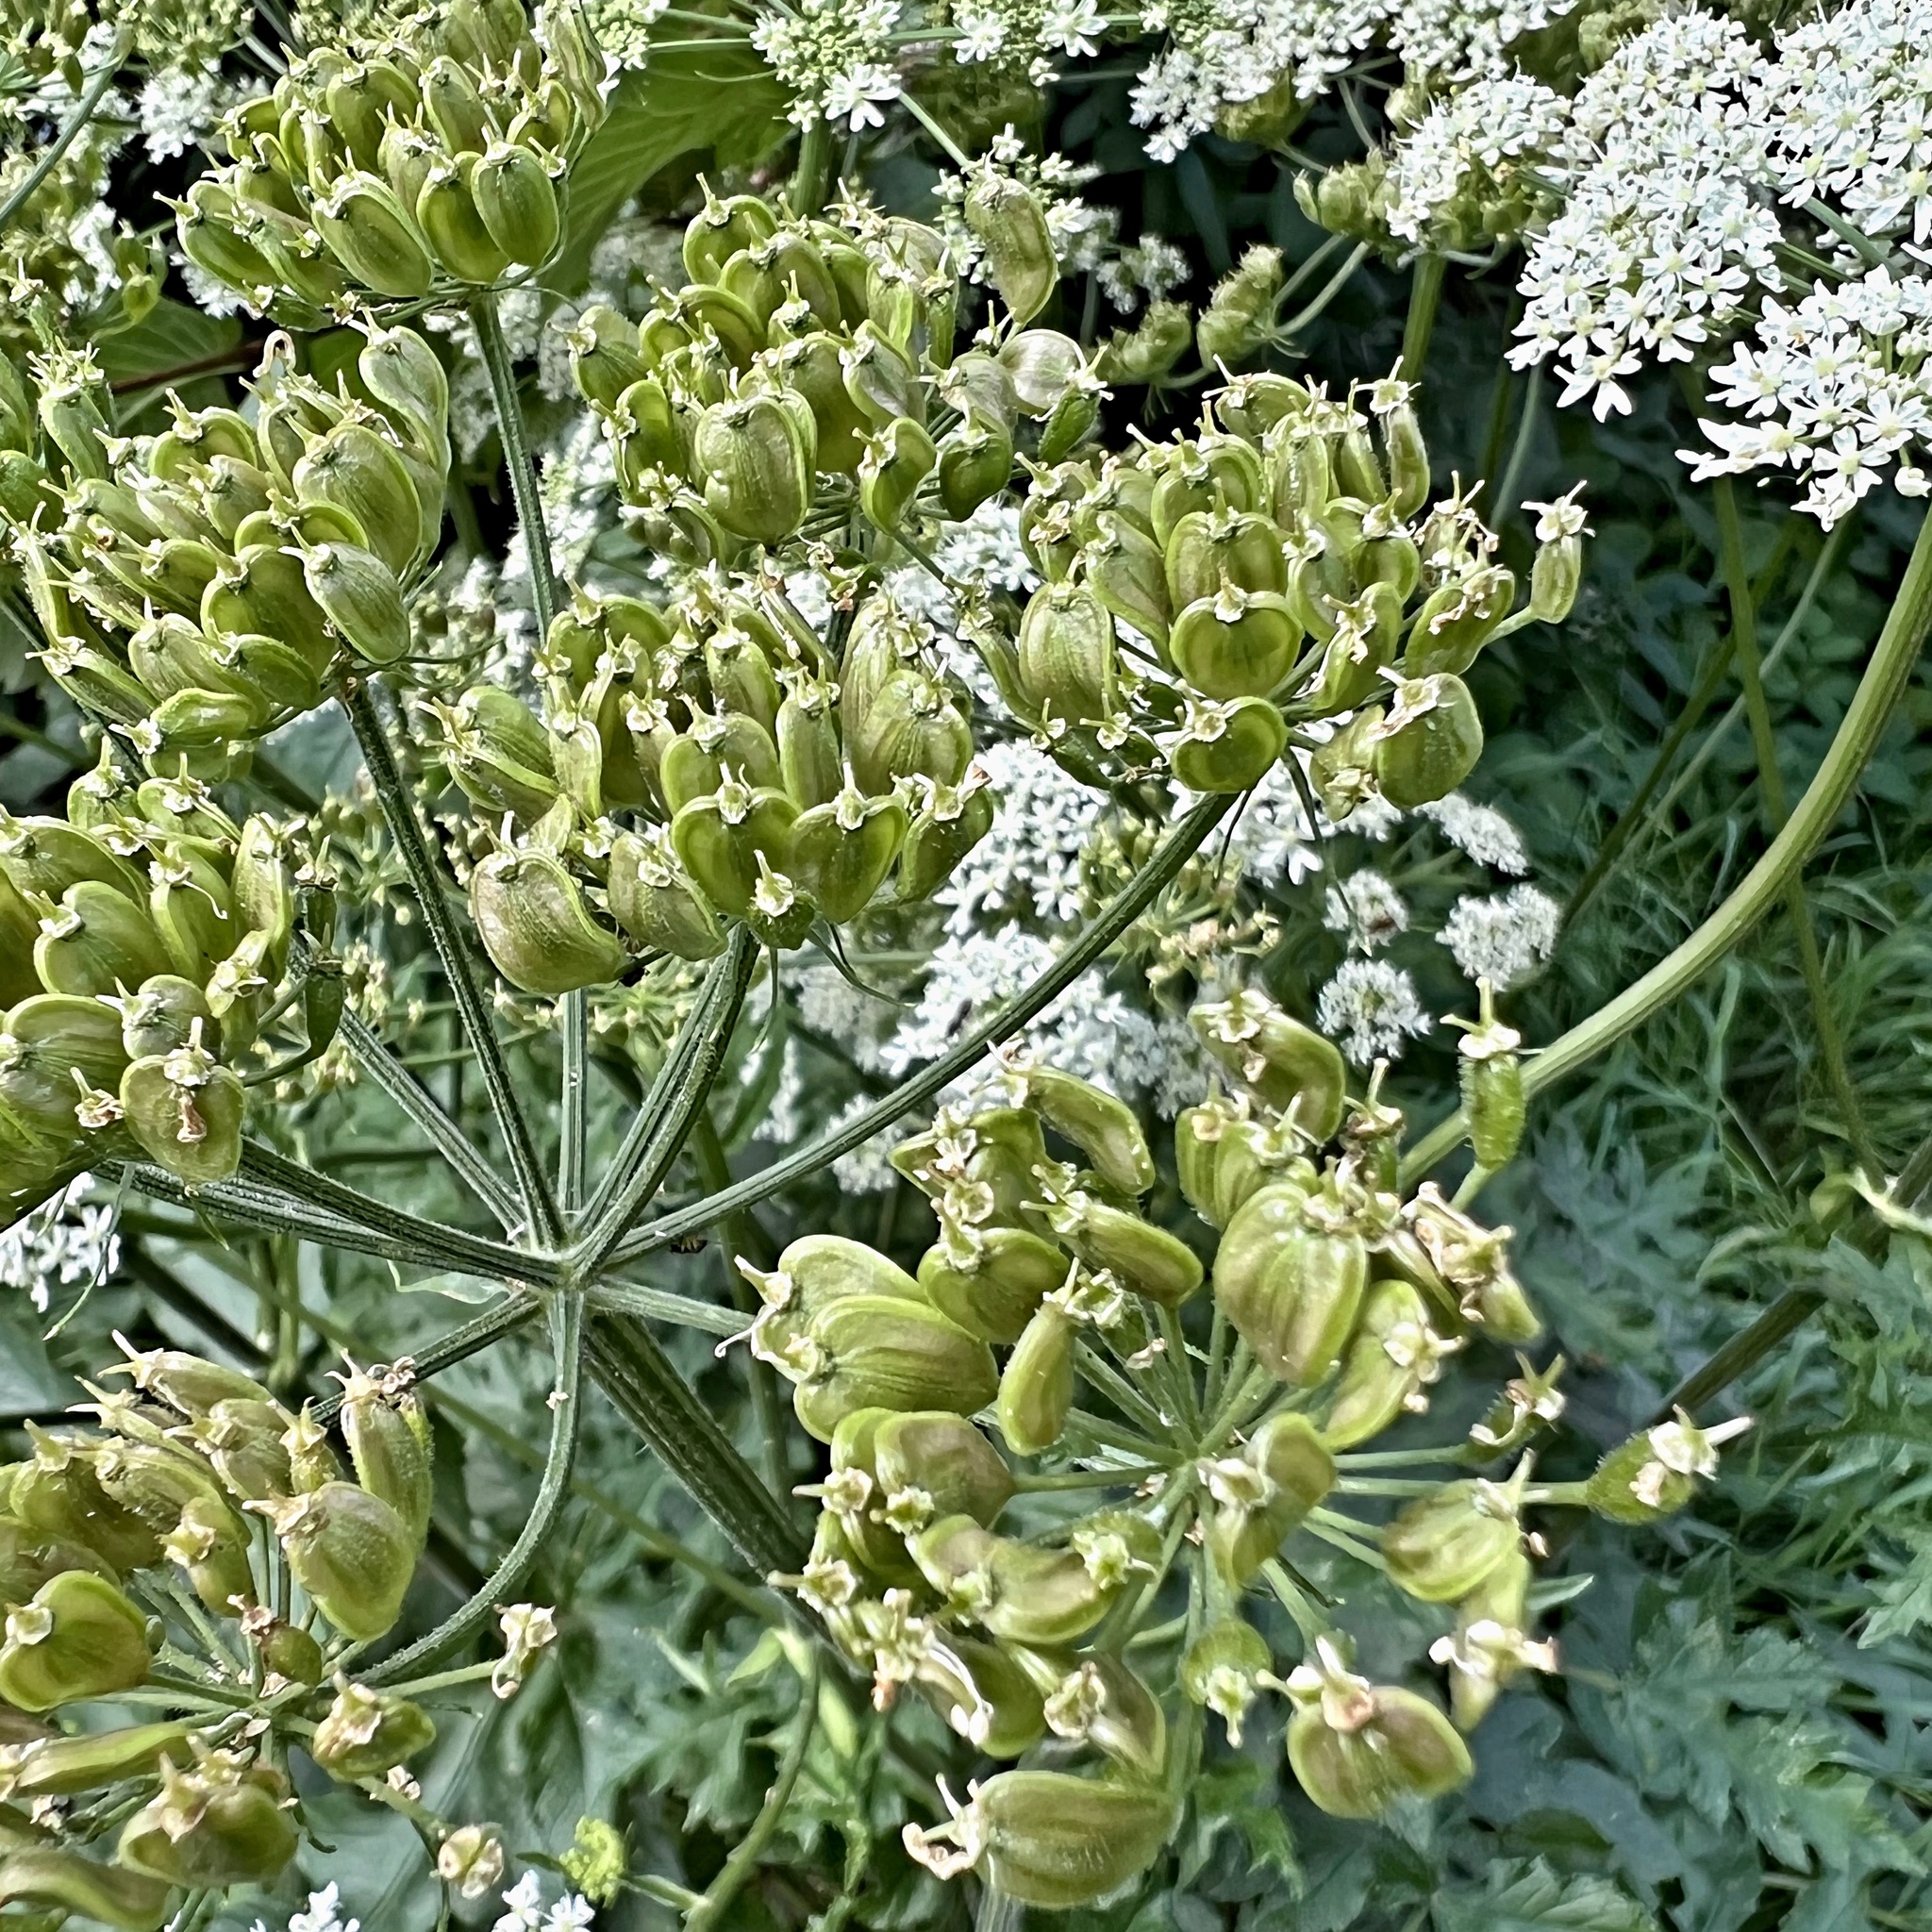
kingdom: Plantae
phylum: Tracheophyta
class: Magnoliopsida
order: Apiales
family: Apiaceae
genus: Heracleum
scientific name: Heracleum sphondylium
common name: Hogweed
